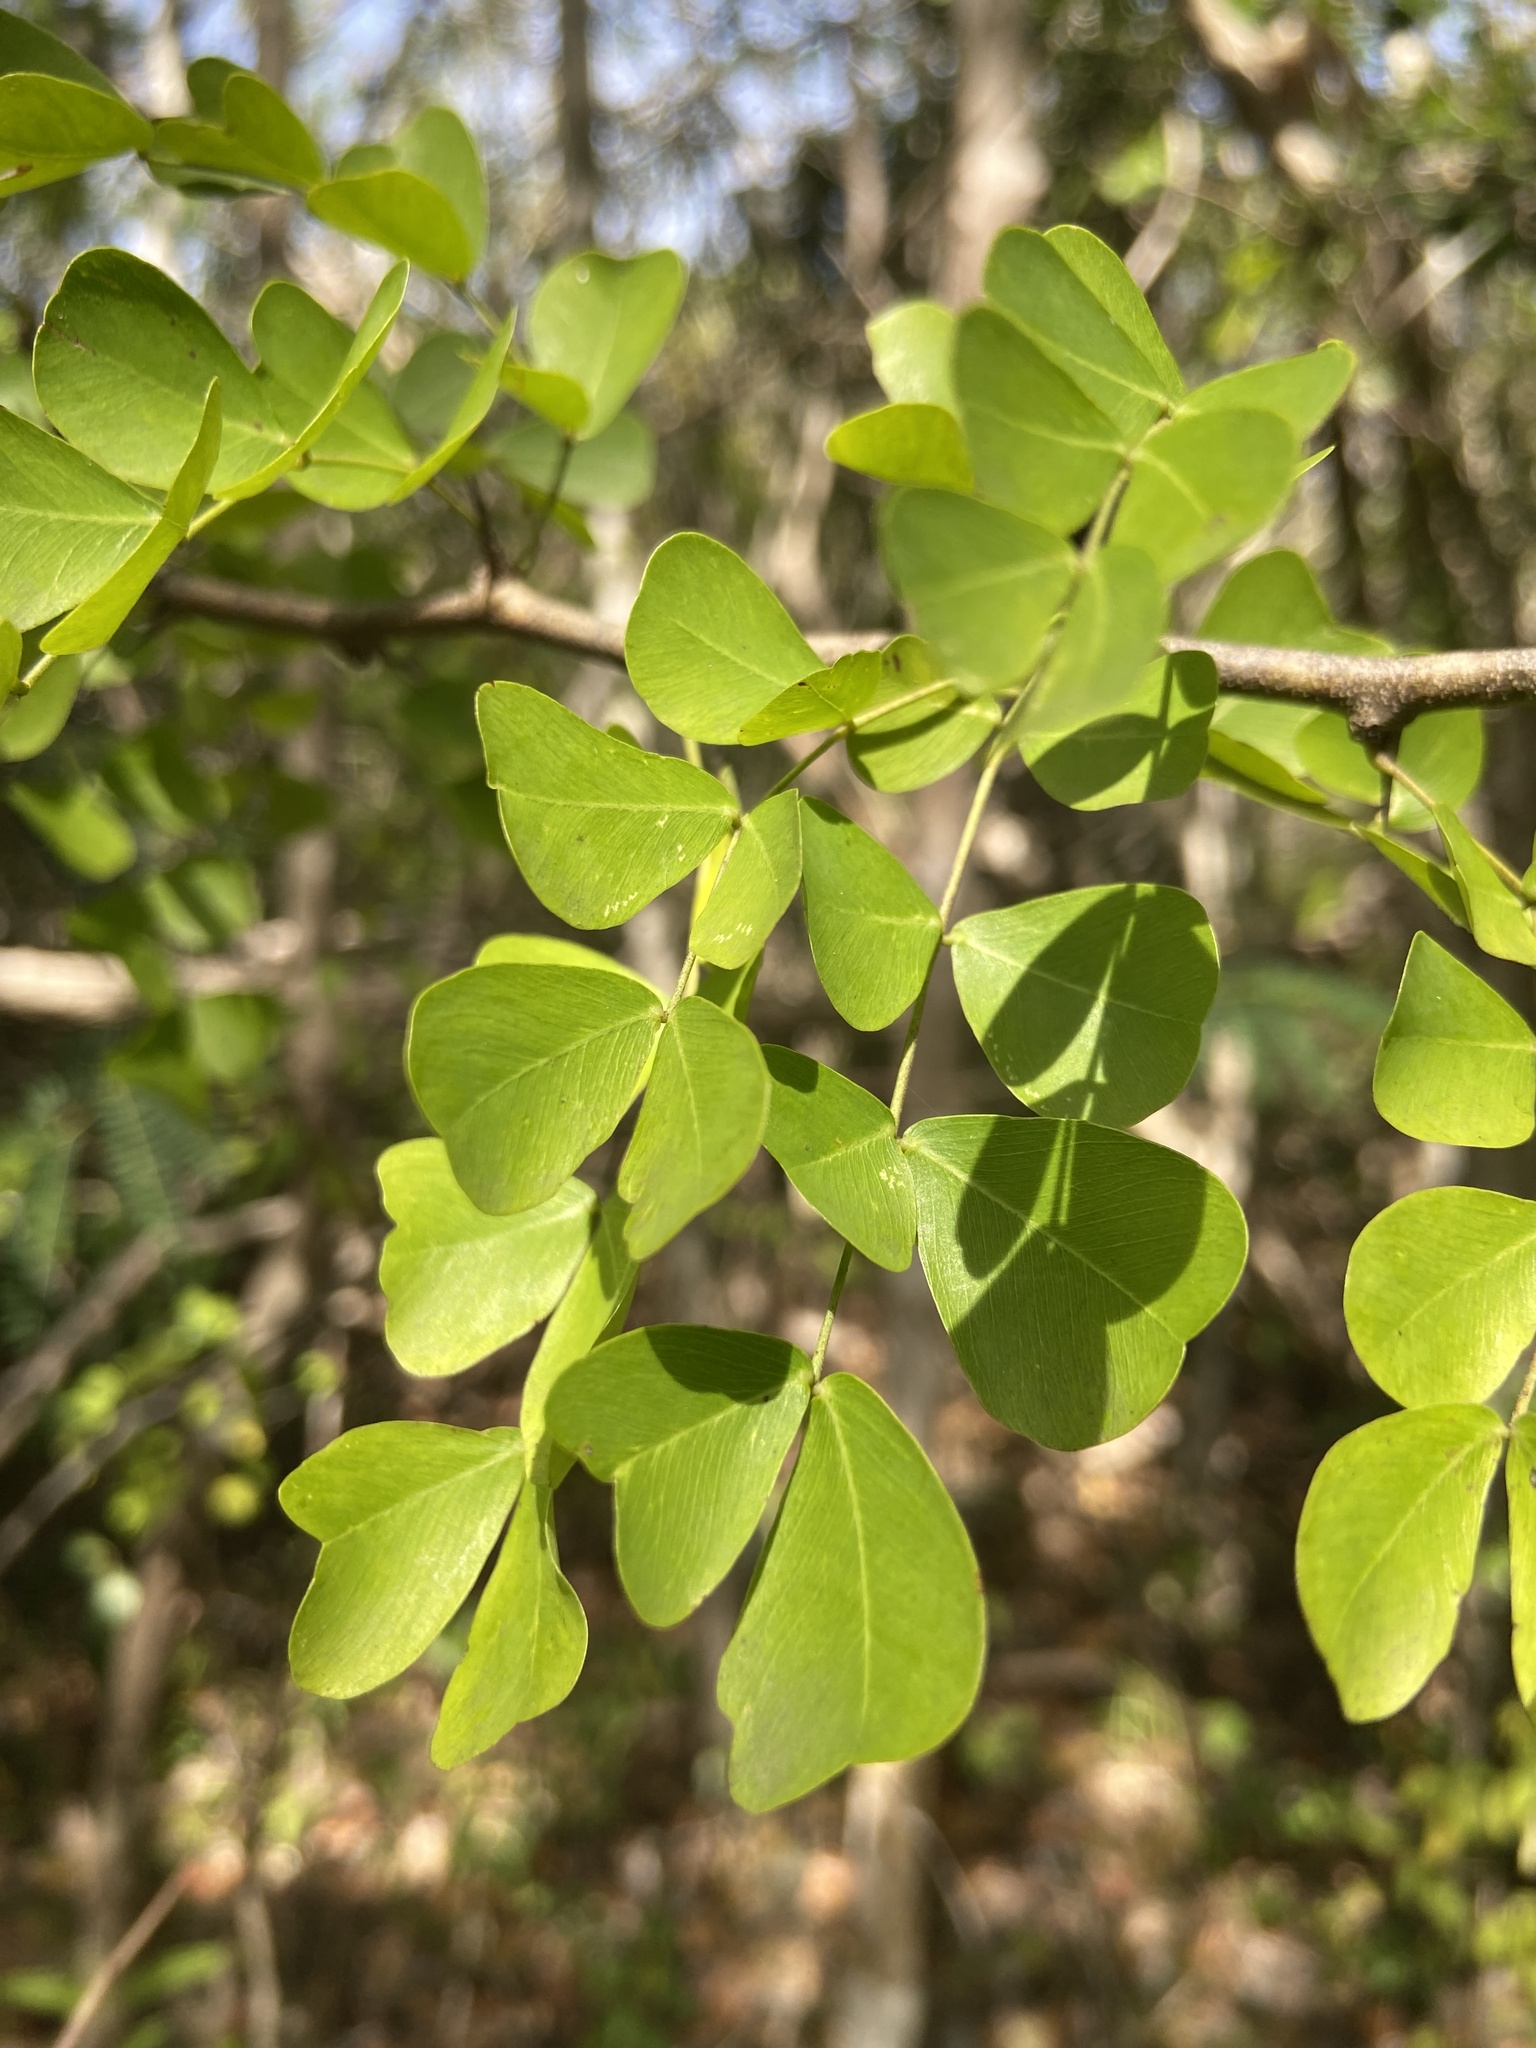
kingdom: Plantae
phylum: Tracheophyta
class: Magnoliopsida
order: Fabales
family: Fabaceae
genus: Haematoxylum
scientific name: Haematoxylum campechianum
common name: Logwood
